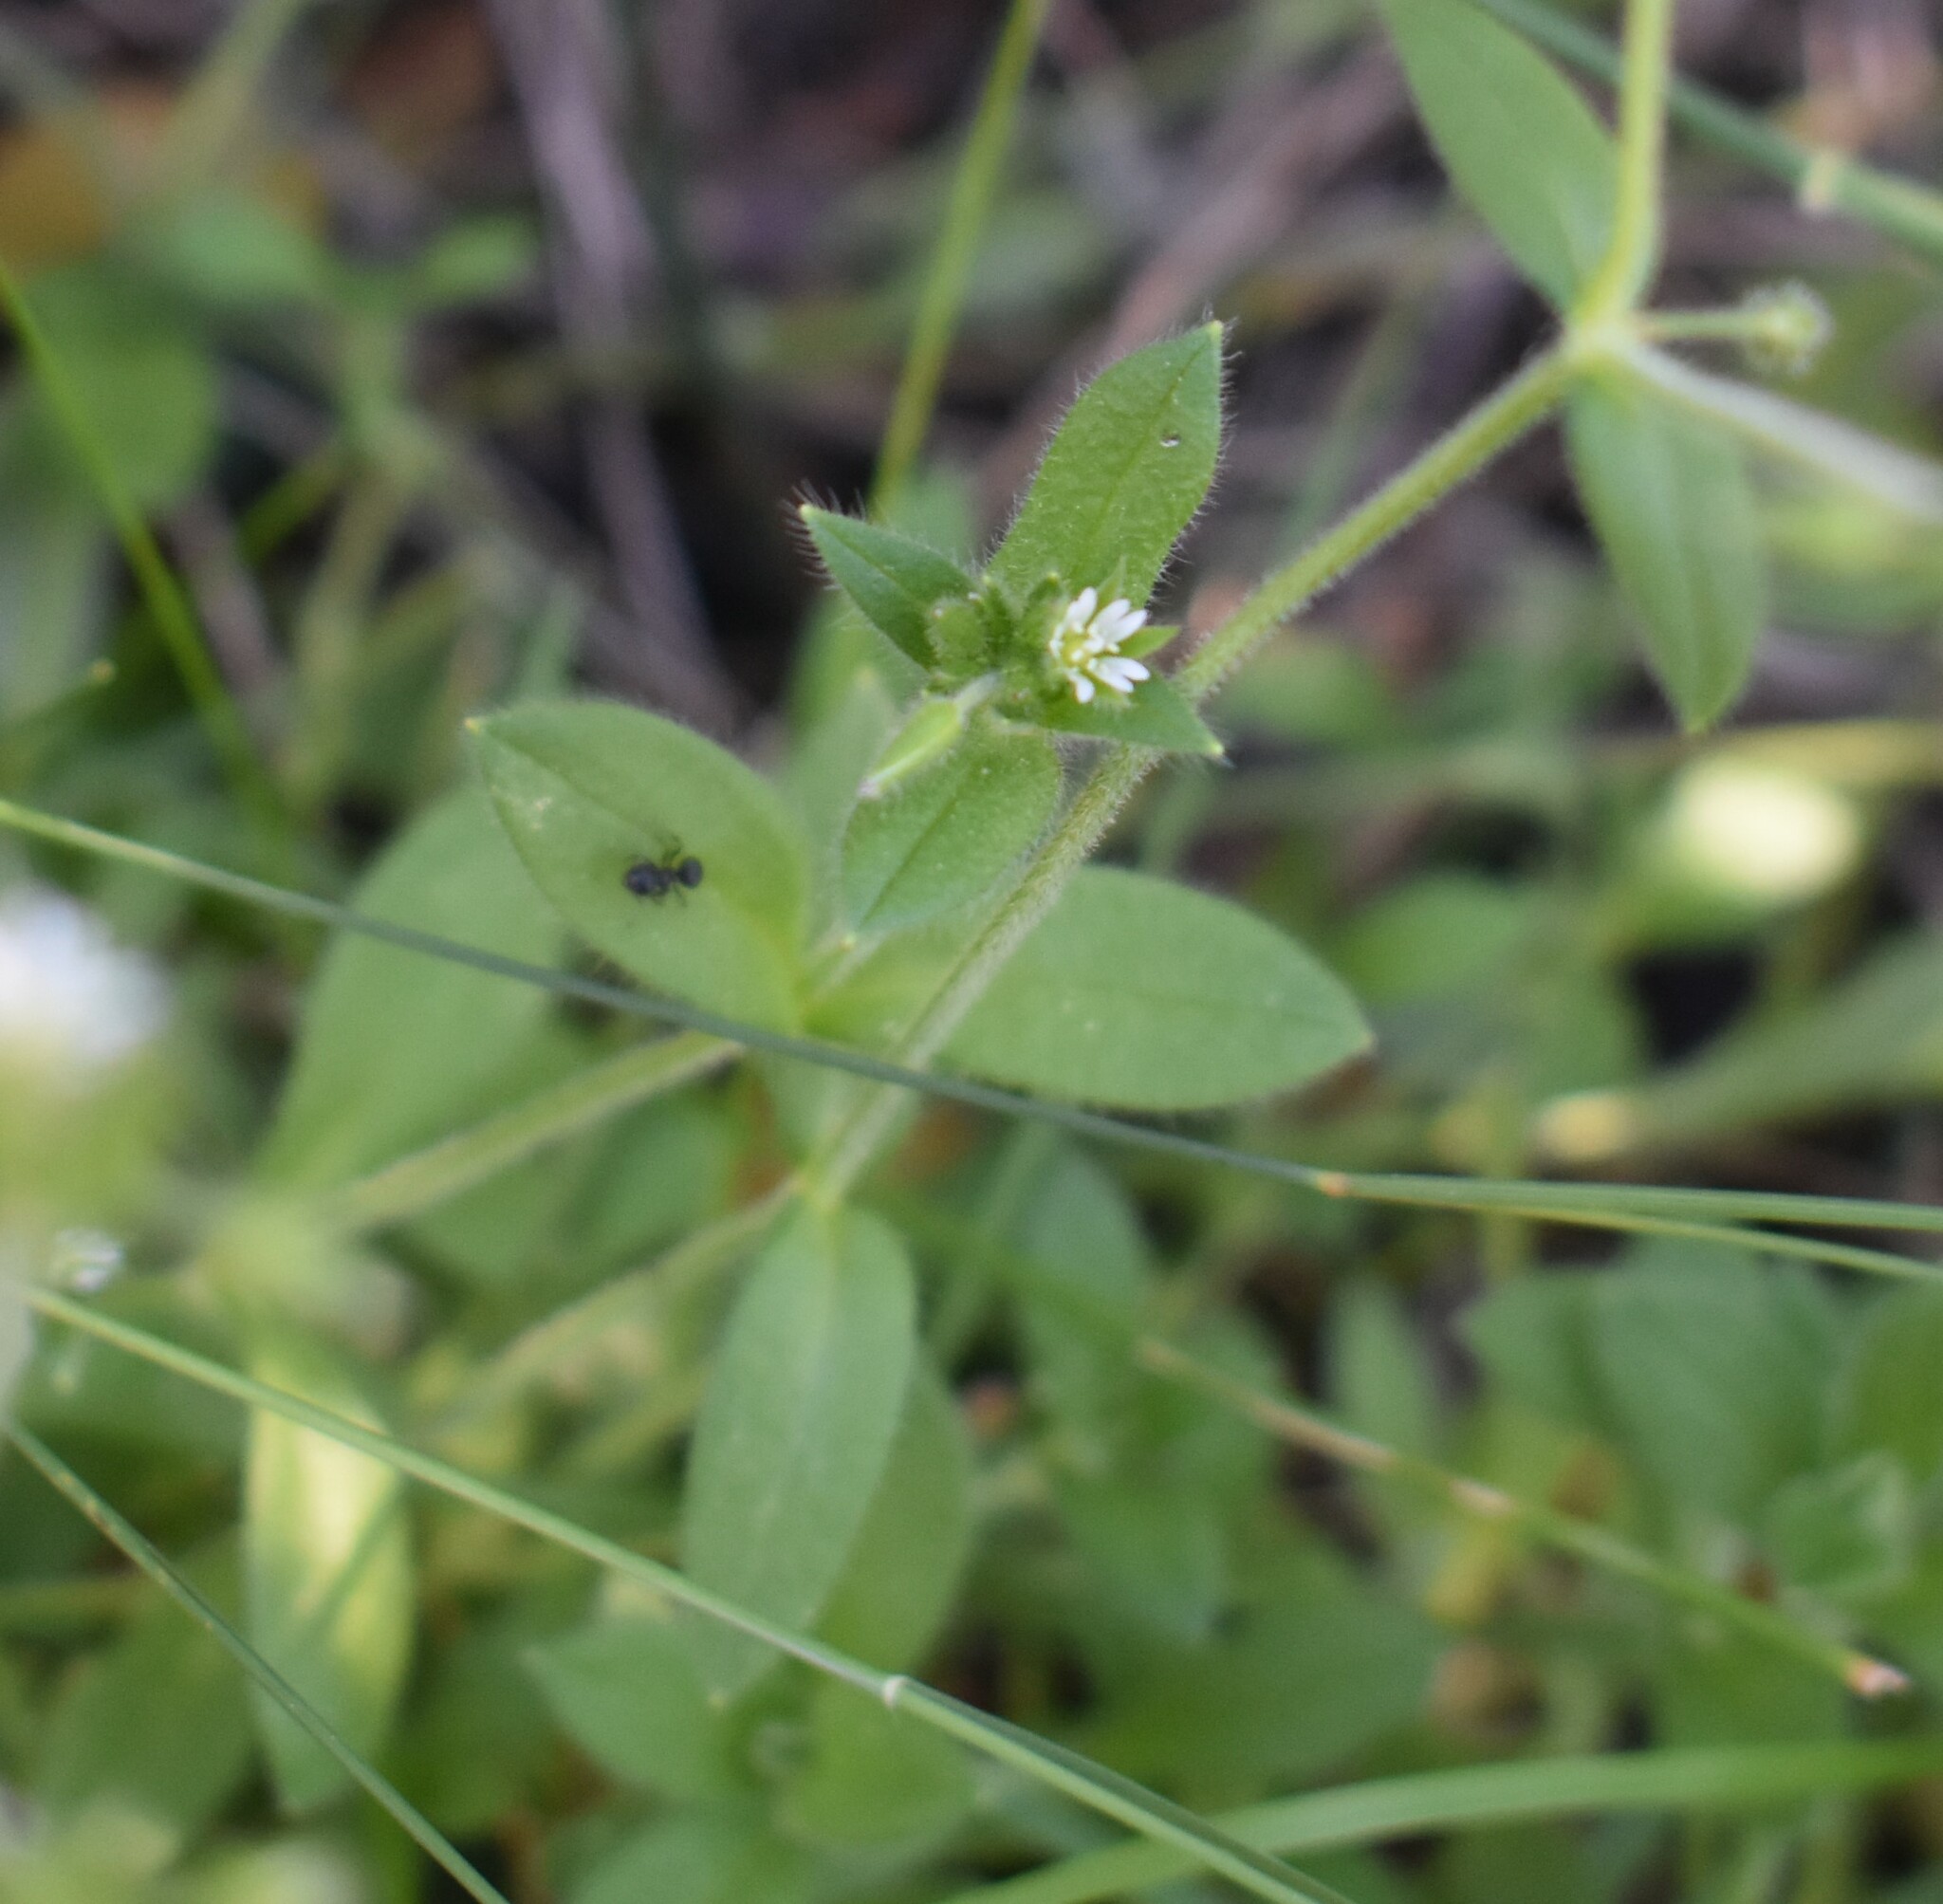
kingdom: Plantae
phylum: Tracheophyta
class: Magnoliopsida
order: Caryophyllales
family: Caryophyllaceae
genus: Cerastium
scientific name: Cerastium glomeratum
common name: Sticky chickweed
